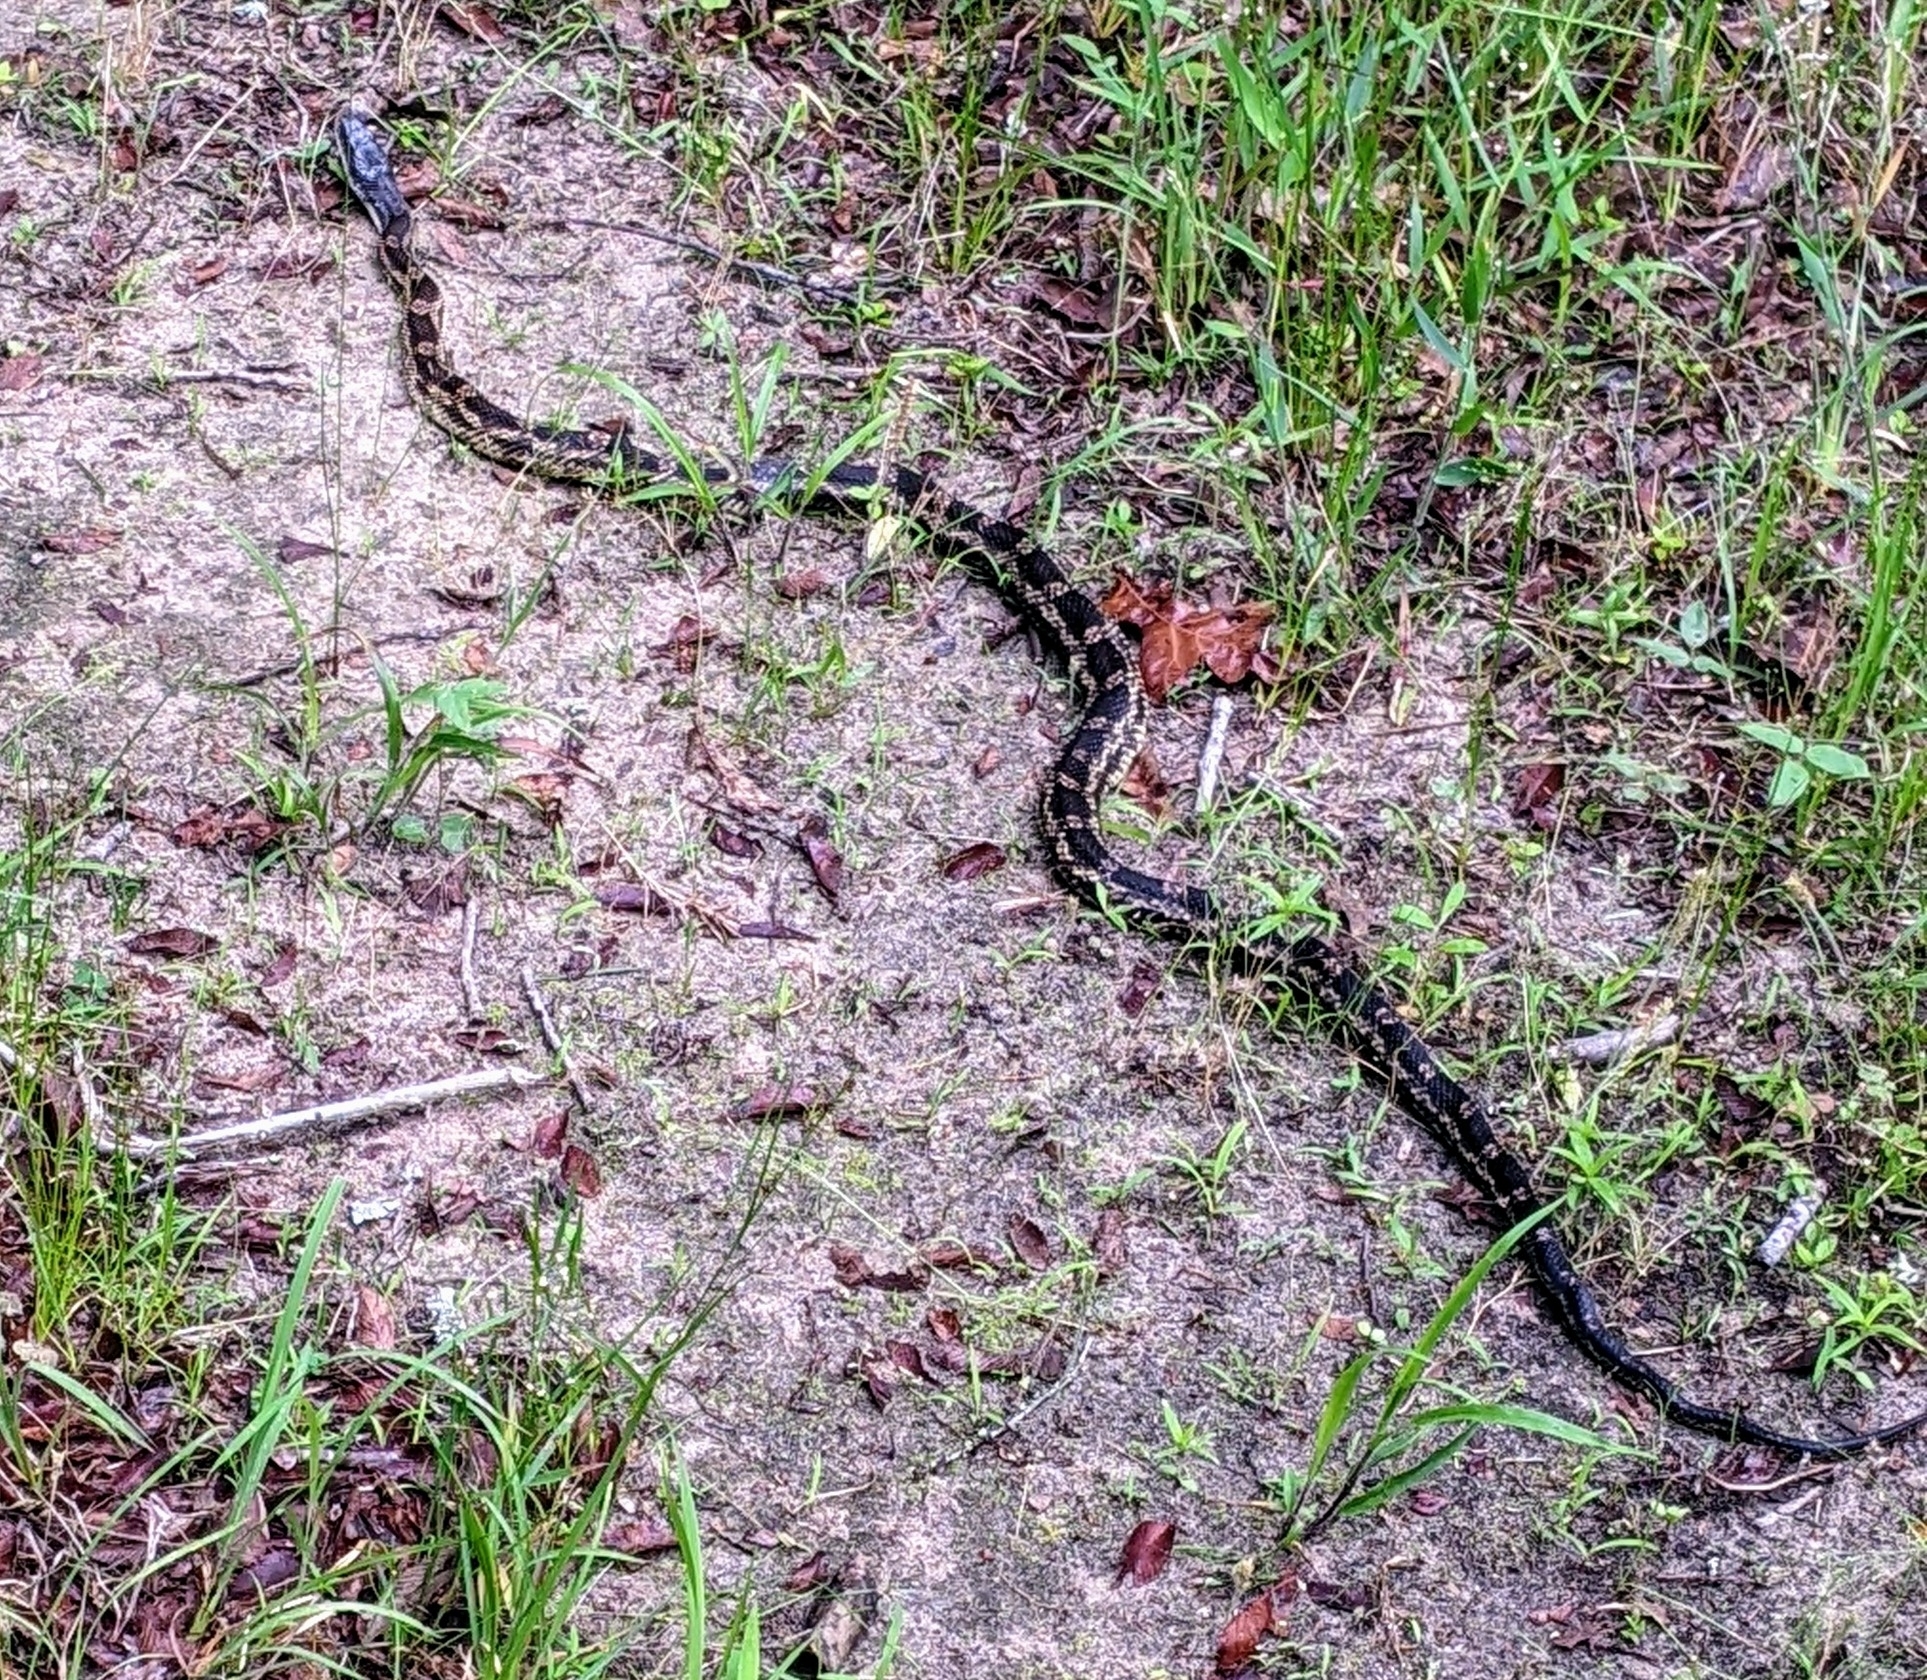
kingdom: Animalia
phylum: Chordata
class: Squamata
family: Colubridae
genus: Pantherophis
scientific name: Pantherophis obsoletus
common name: Black rat snake
